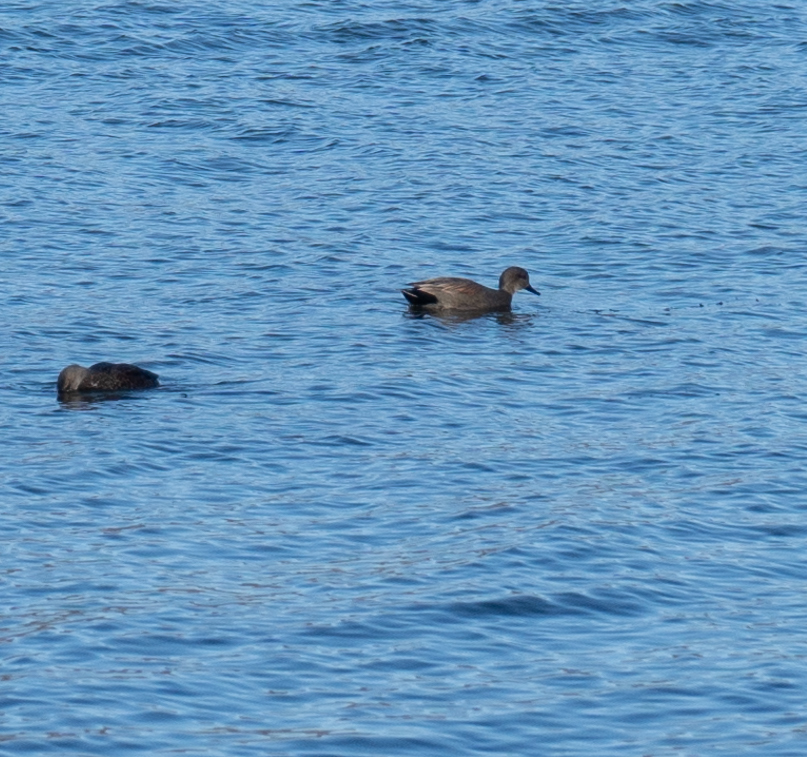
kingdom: Animalia
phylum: Chordata
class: Aves
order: Anseriformes
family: Anatidae
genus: Mareca
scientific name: Mareca strepera
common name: Gadwall
